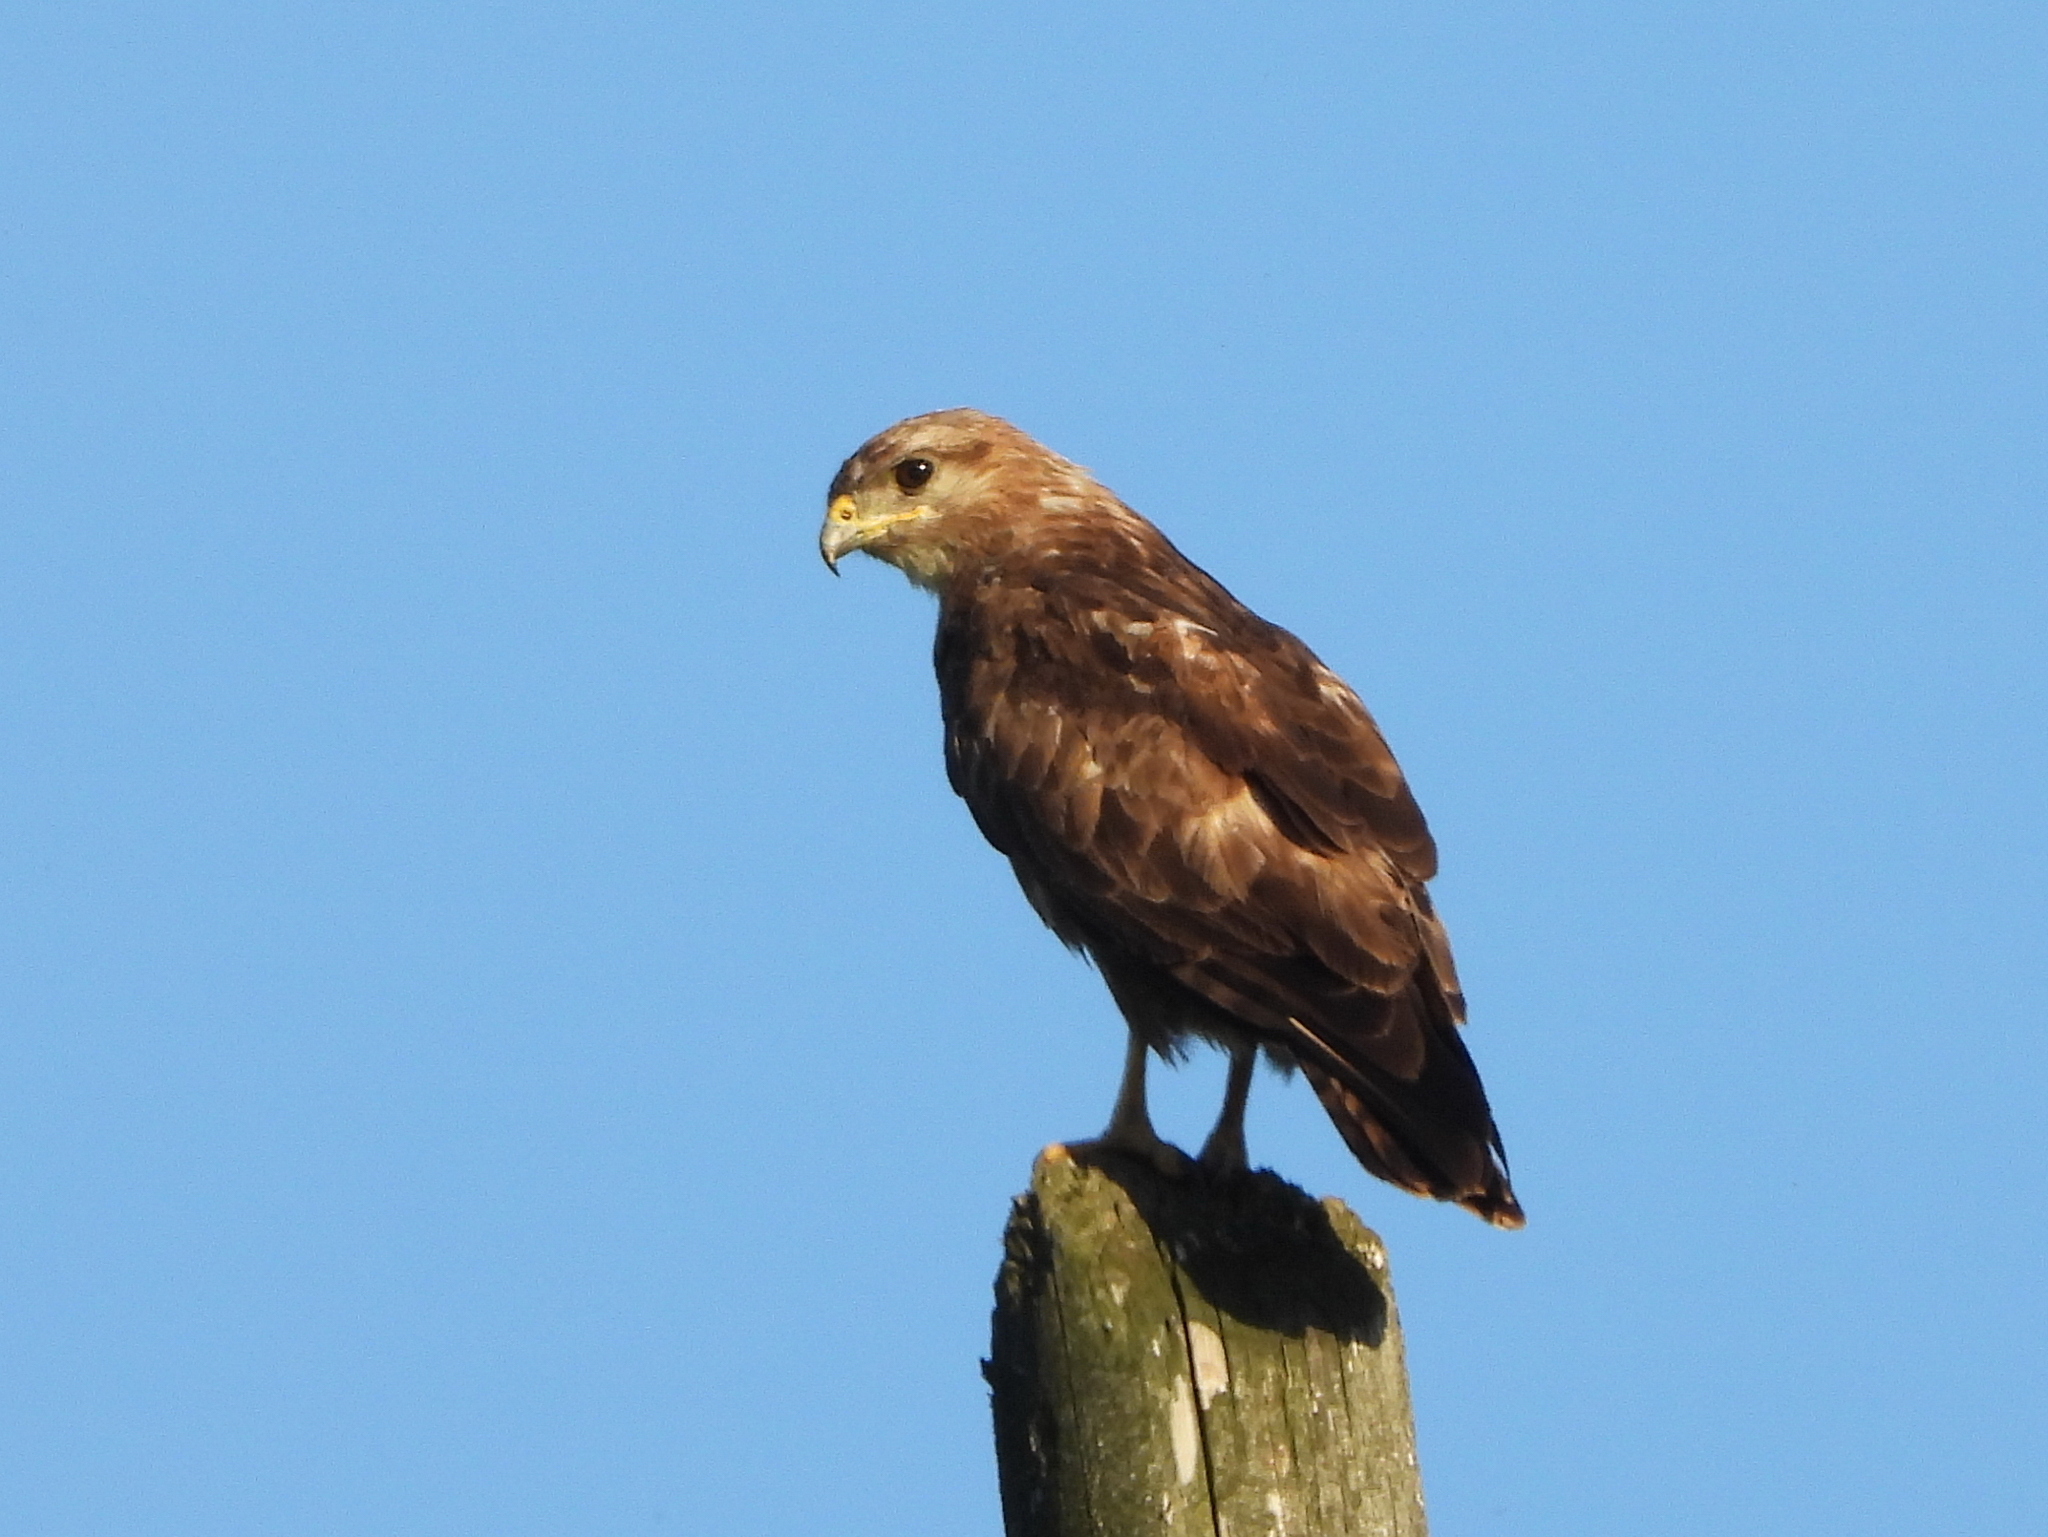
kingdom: Animalia
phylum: Chordata
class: Aves
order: Accipitriformes
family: Accipitridae
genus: Buteo
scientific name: Buteo buteo
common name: Common buzzard
